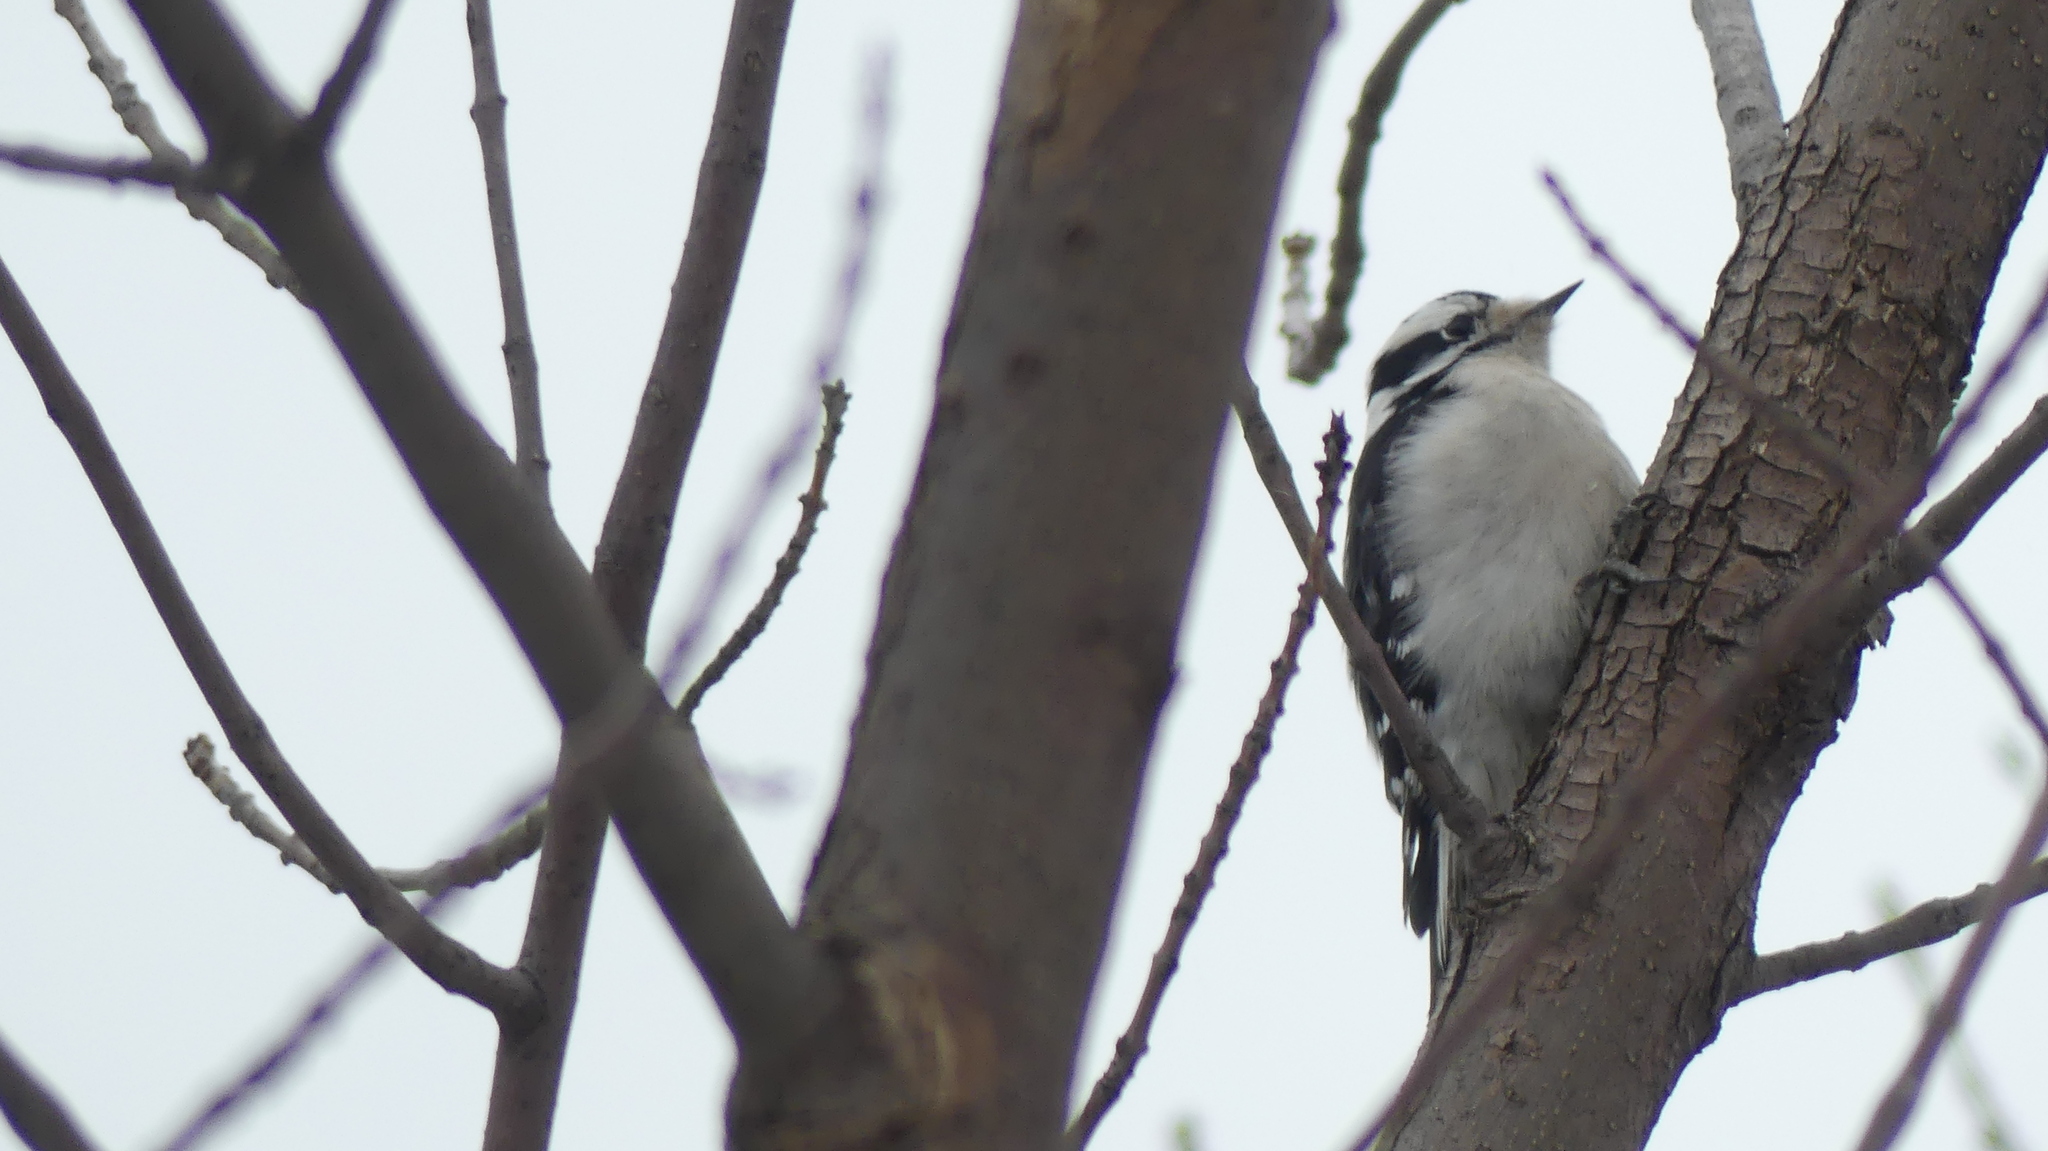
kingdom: Animalia
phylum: Chordata
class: Aves
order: Piciformes
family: Picidae
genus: Dryobates
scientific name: Dryobates pubescens
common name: Downy woodpecker
